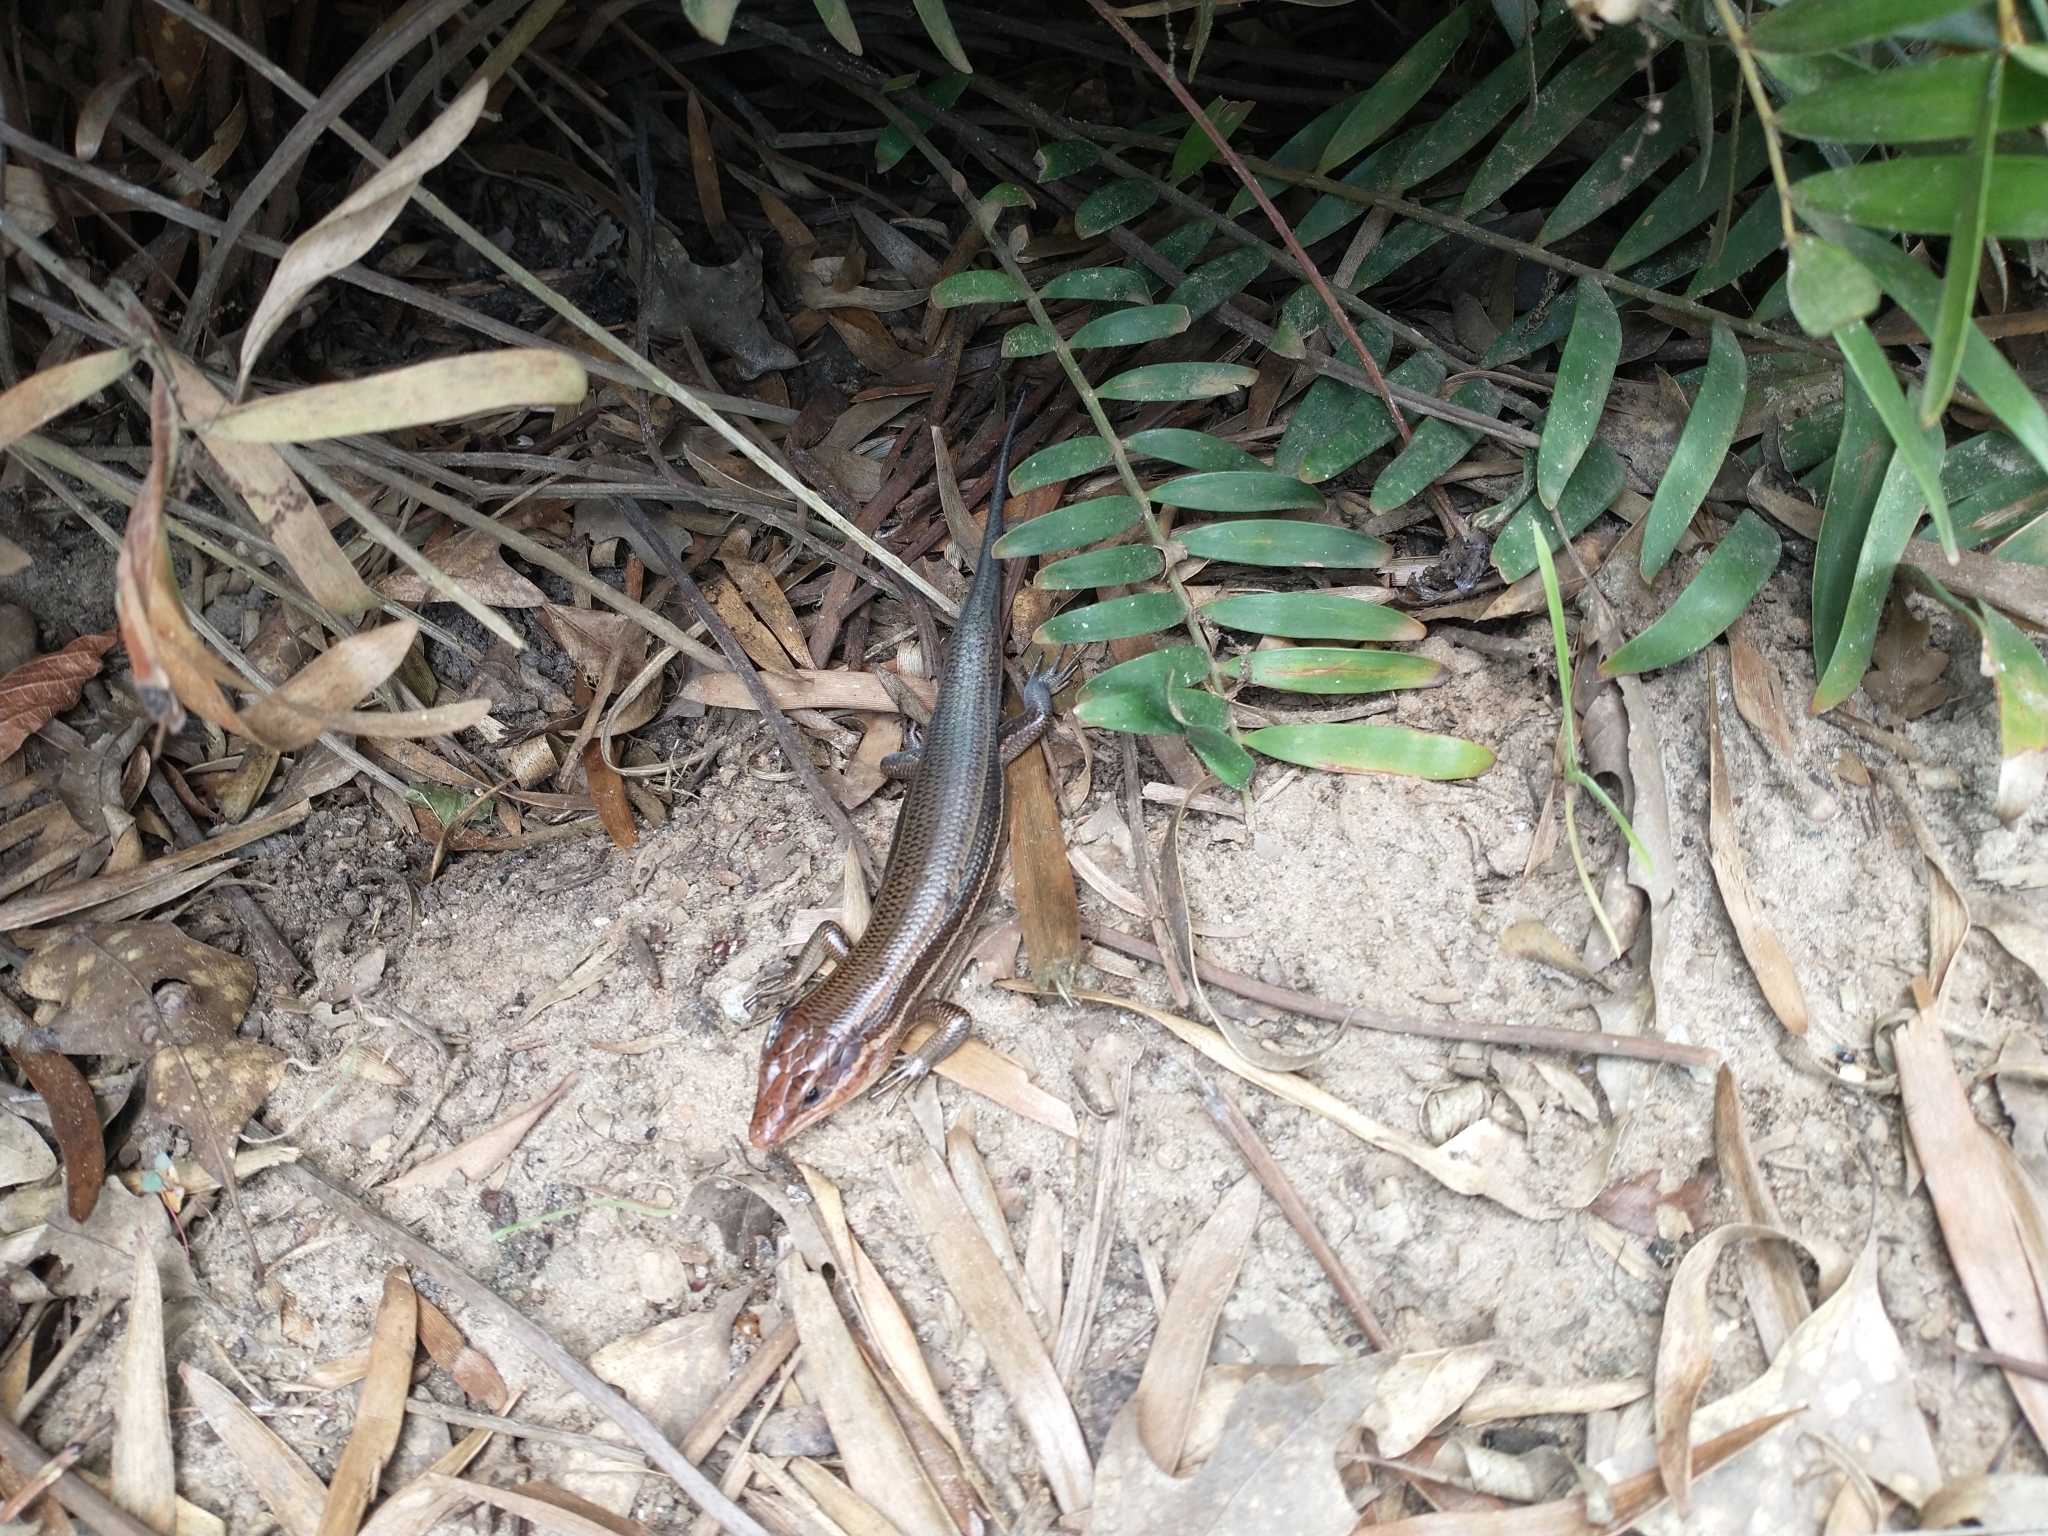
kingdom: Animalia
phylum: Chordata
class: Squamata
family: Scincidae
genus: Plestiodon
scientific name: Plestiodon
